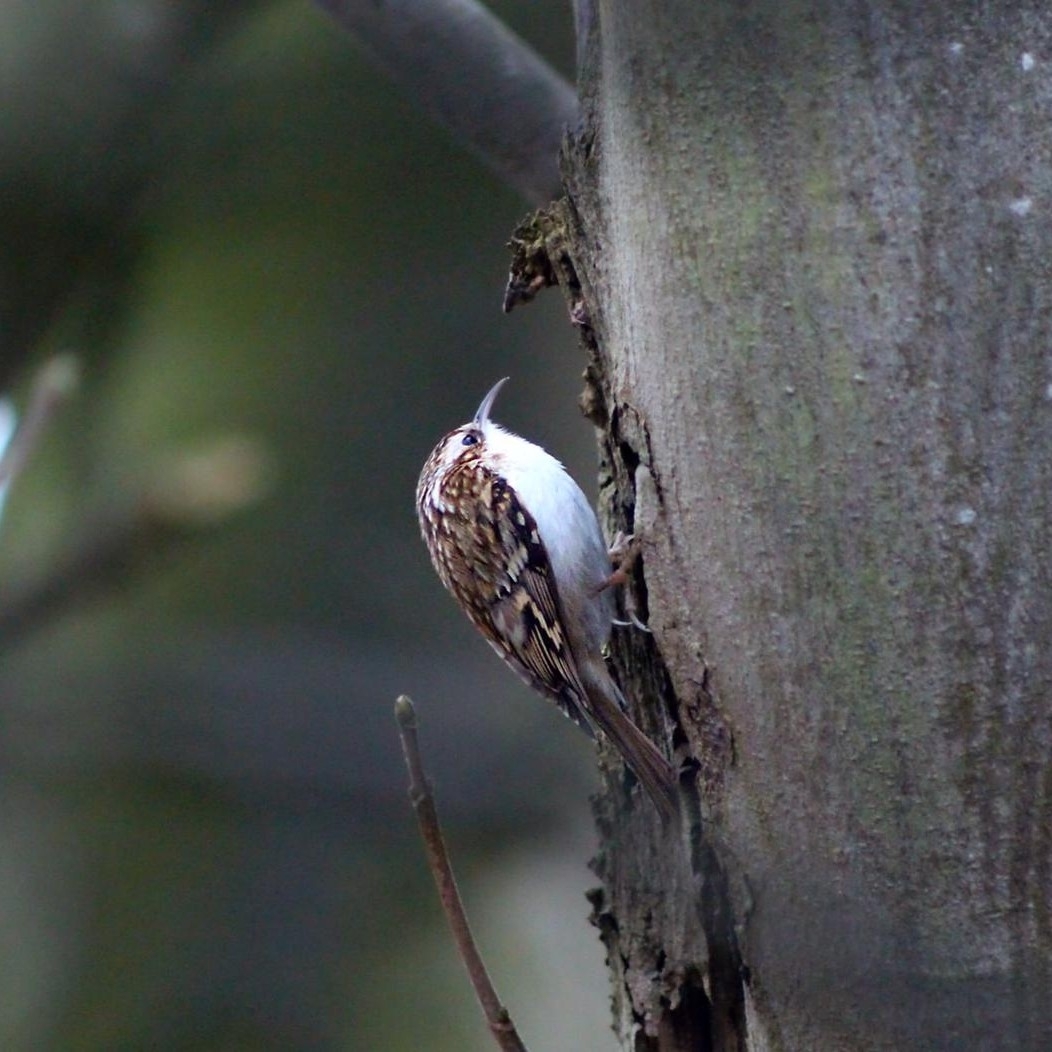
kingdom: Animalia
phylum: Chordata
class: Aves
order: Passeriformes
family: Certhiidae
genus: Certhia
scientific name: Certhia familiaris
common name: Eurasian treecreeper
